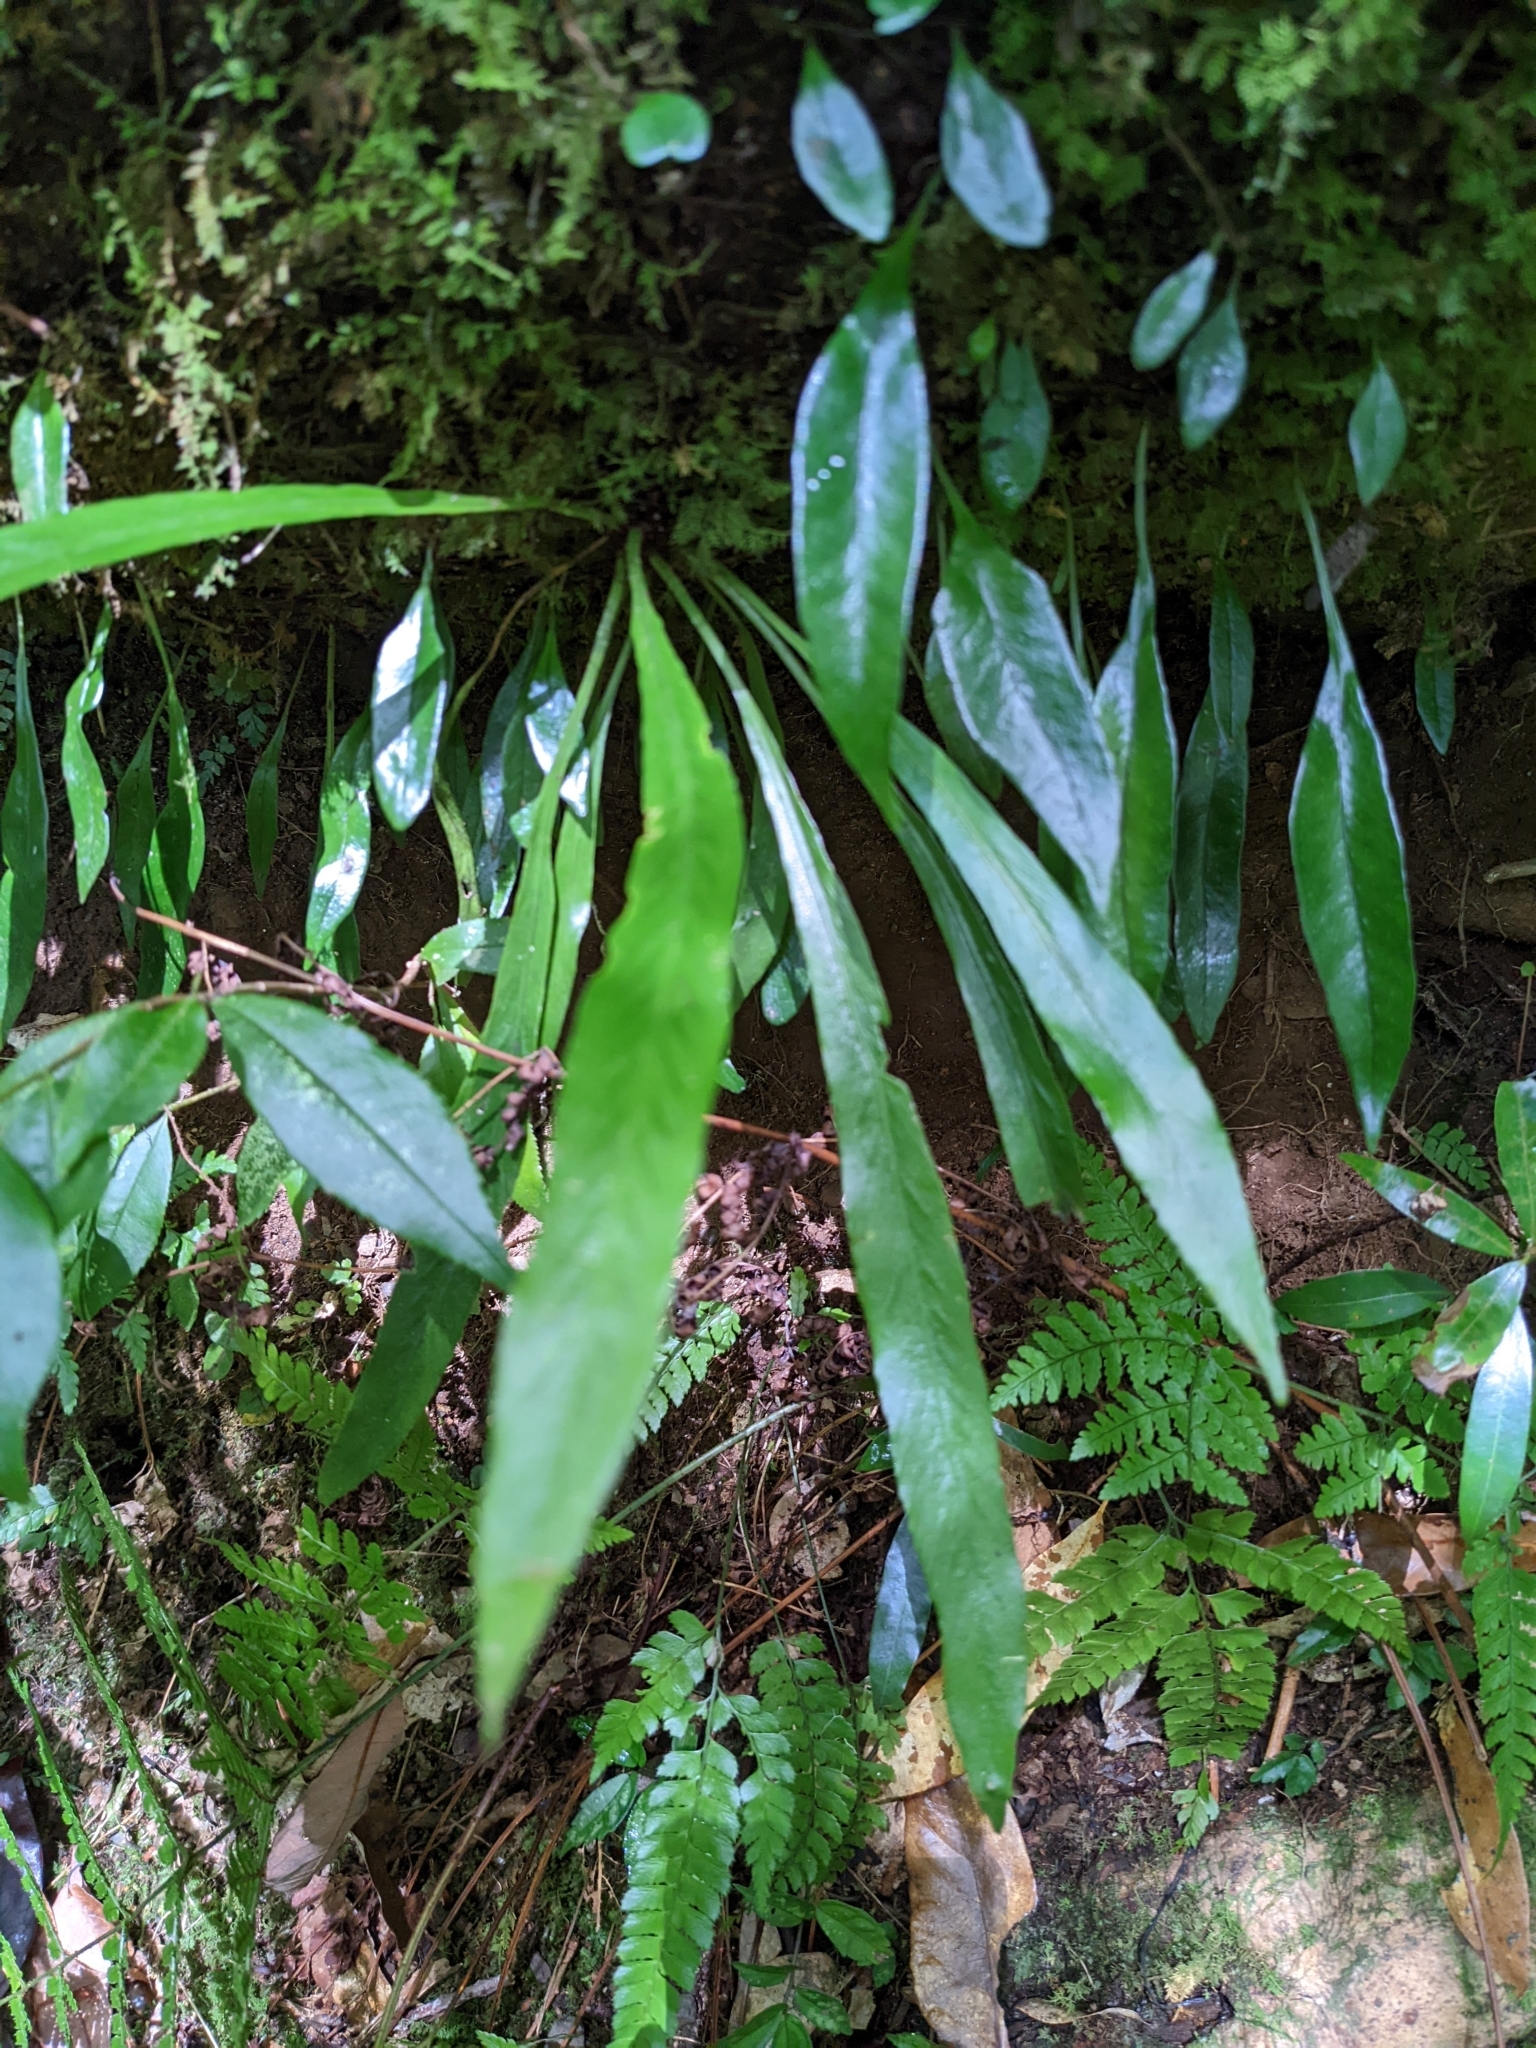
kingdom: Plantae
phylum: Tracheophyta
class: Polypodiopsida
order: Polypodiales
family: Aspleniaceae
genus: Asplenium
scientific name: Asplenium ensiforme
